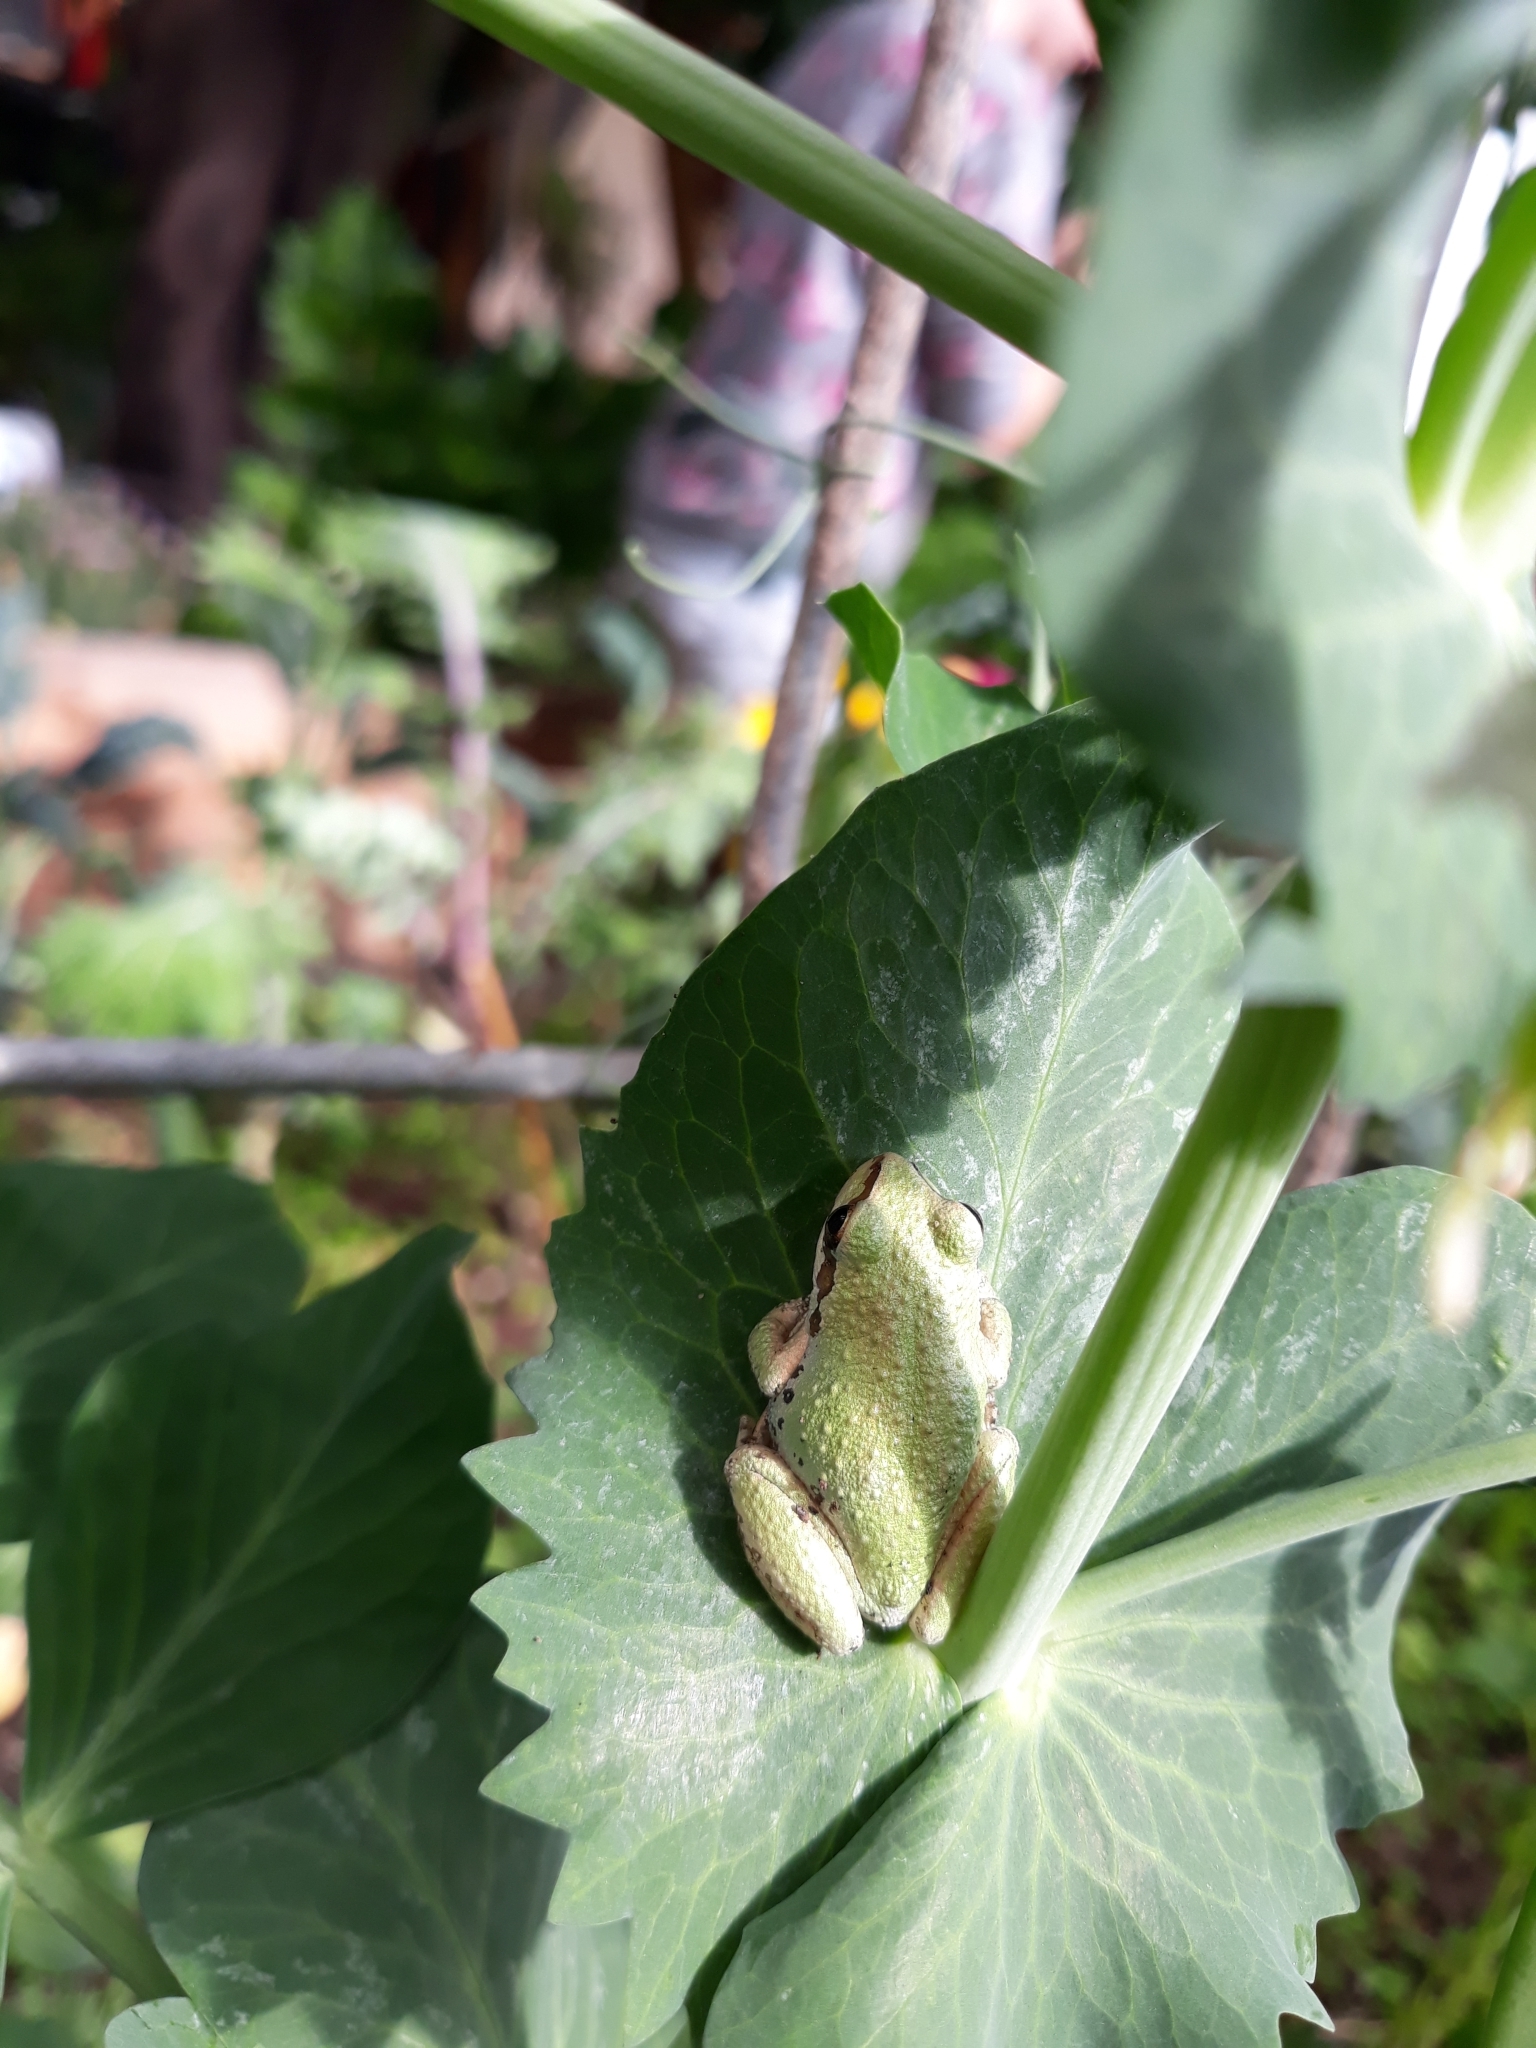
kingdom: Animalia
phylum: Chordata
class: Amphibia
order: Anura
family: Hylidae
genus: Pseudacris
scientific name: Pseudacris regilla
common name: Pacific chorus frog
